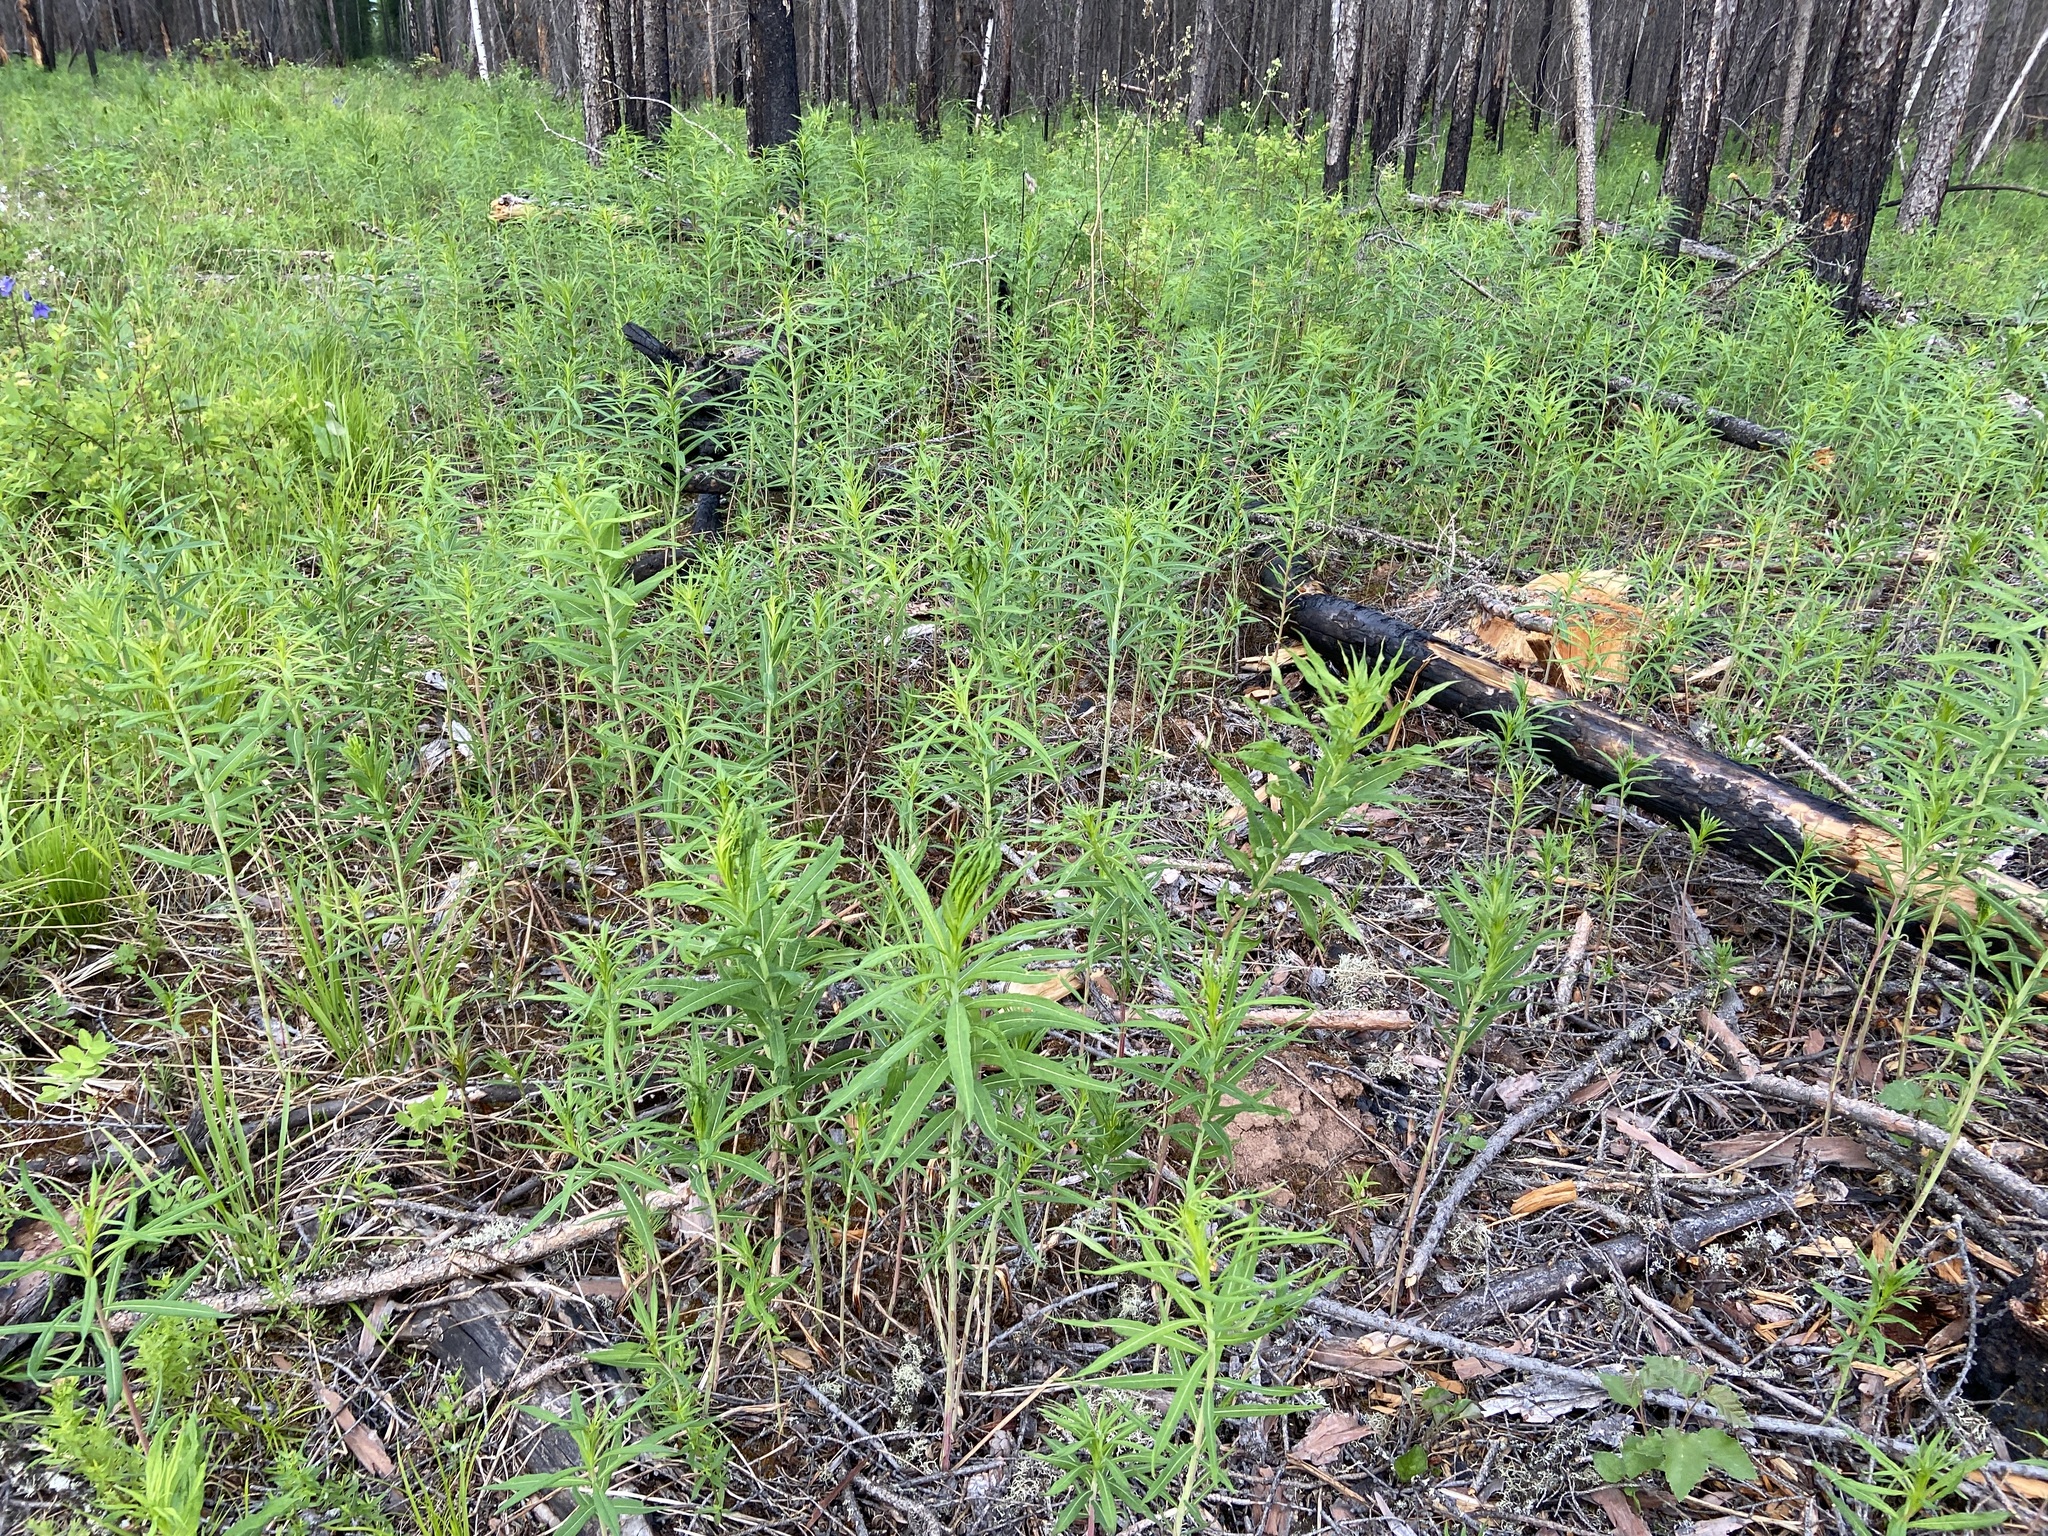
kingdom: Plantae
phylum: Tracheophyta
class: Magnoliopsida
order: Myrtales
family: Onagraceae
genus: Chamaenerion
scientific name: Chamaenerion angustifolium
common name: Fireweed
